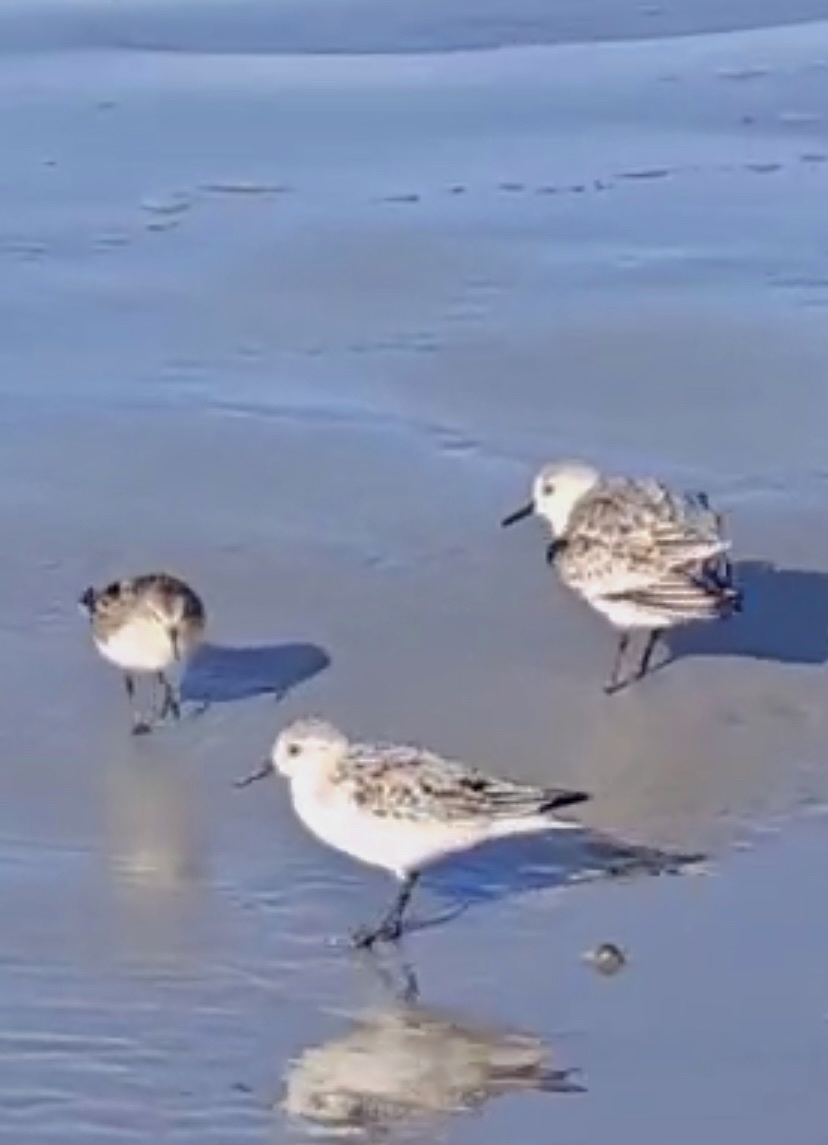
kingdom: Animalia
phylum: Chordata
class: Aves
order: Charadriiformes
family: Scolopacidae
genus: Calidris
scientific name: Calidris alba
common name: Sanderling
